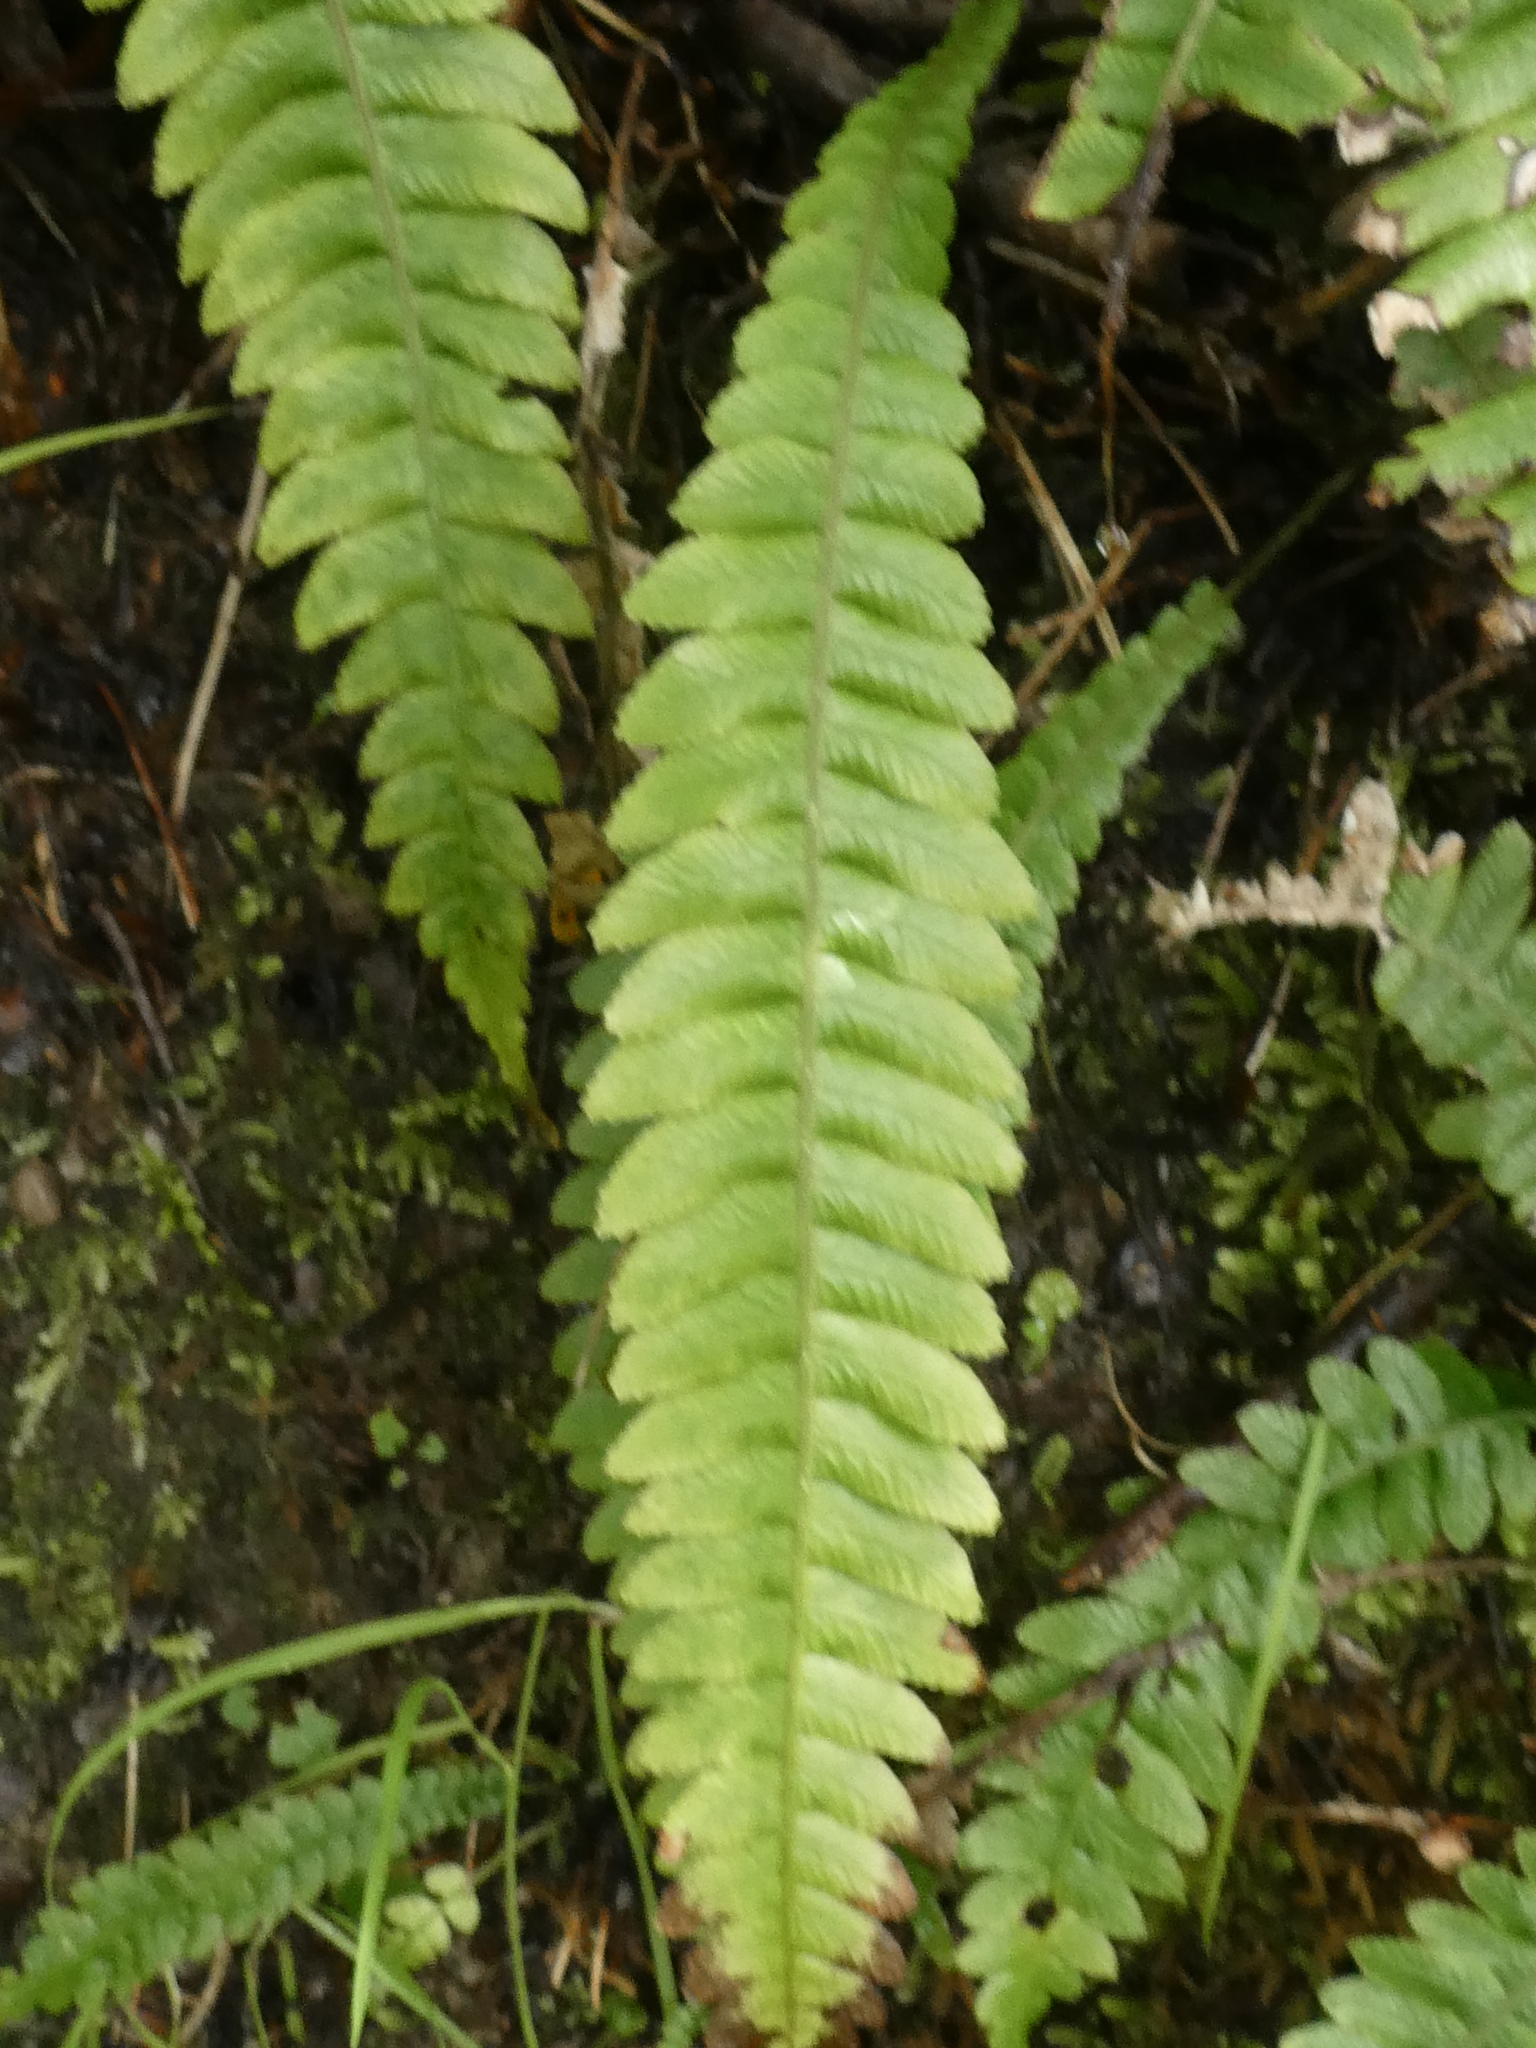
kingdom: Plantae
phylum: Tracheophyta
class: Polypodiopsida
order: Polypodiales
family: Blechnaceae
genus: Austroblechnum
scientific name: Austroblechnum lanceolatum
